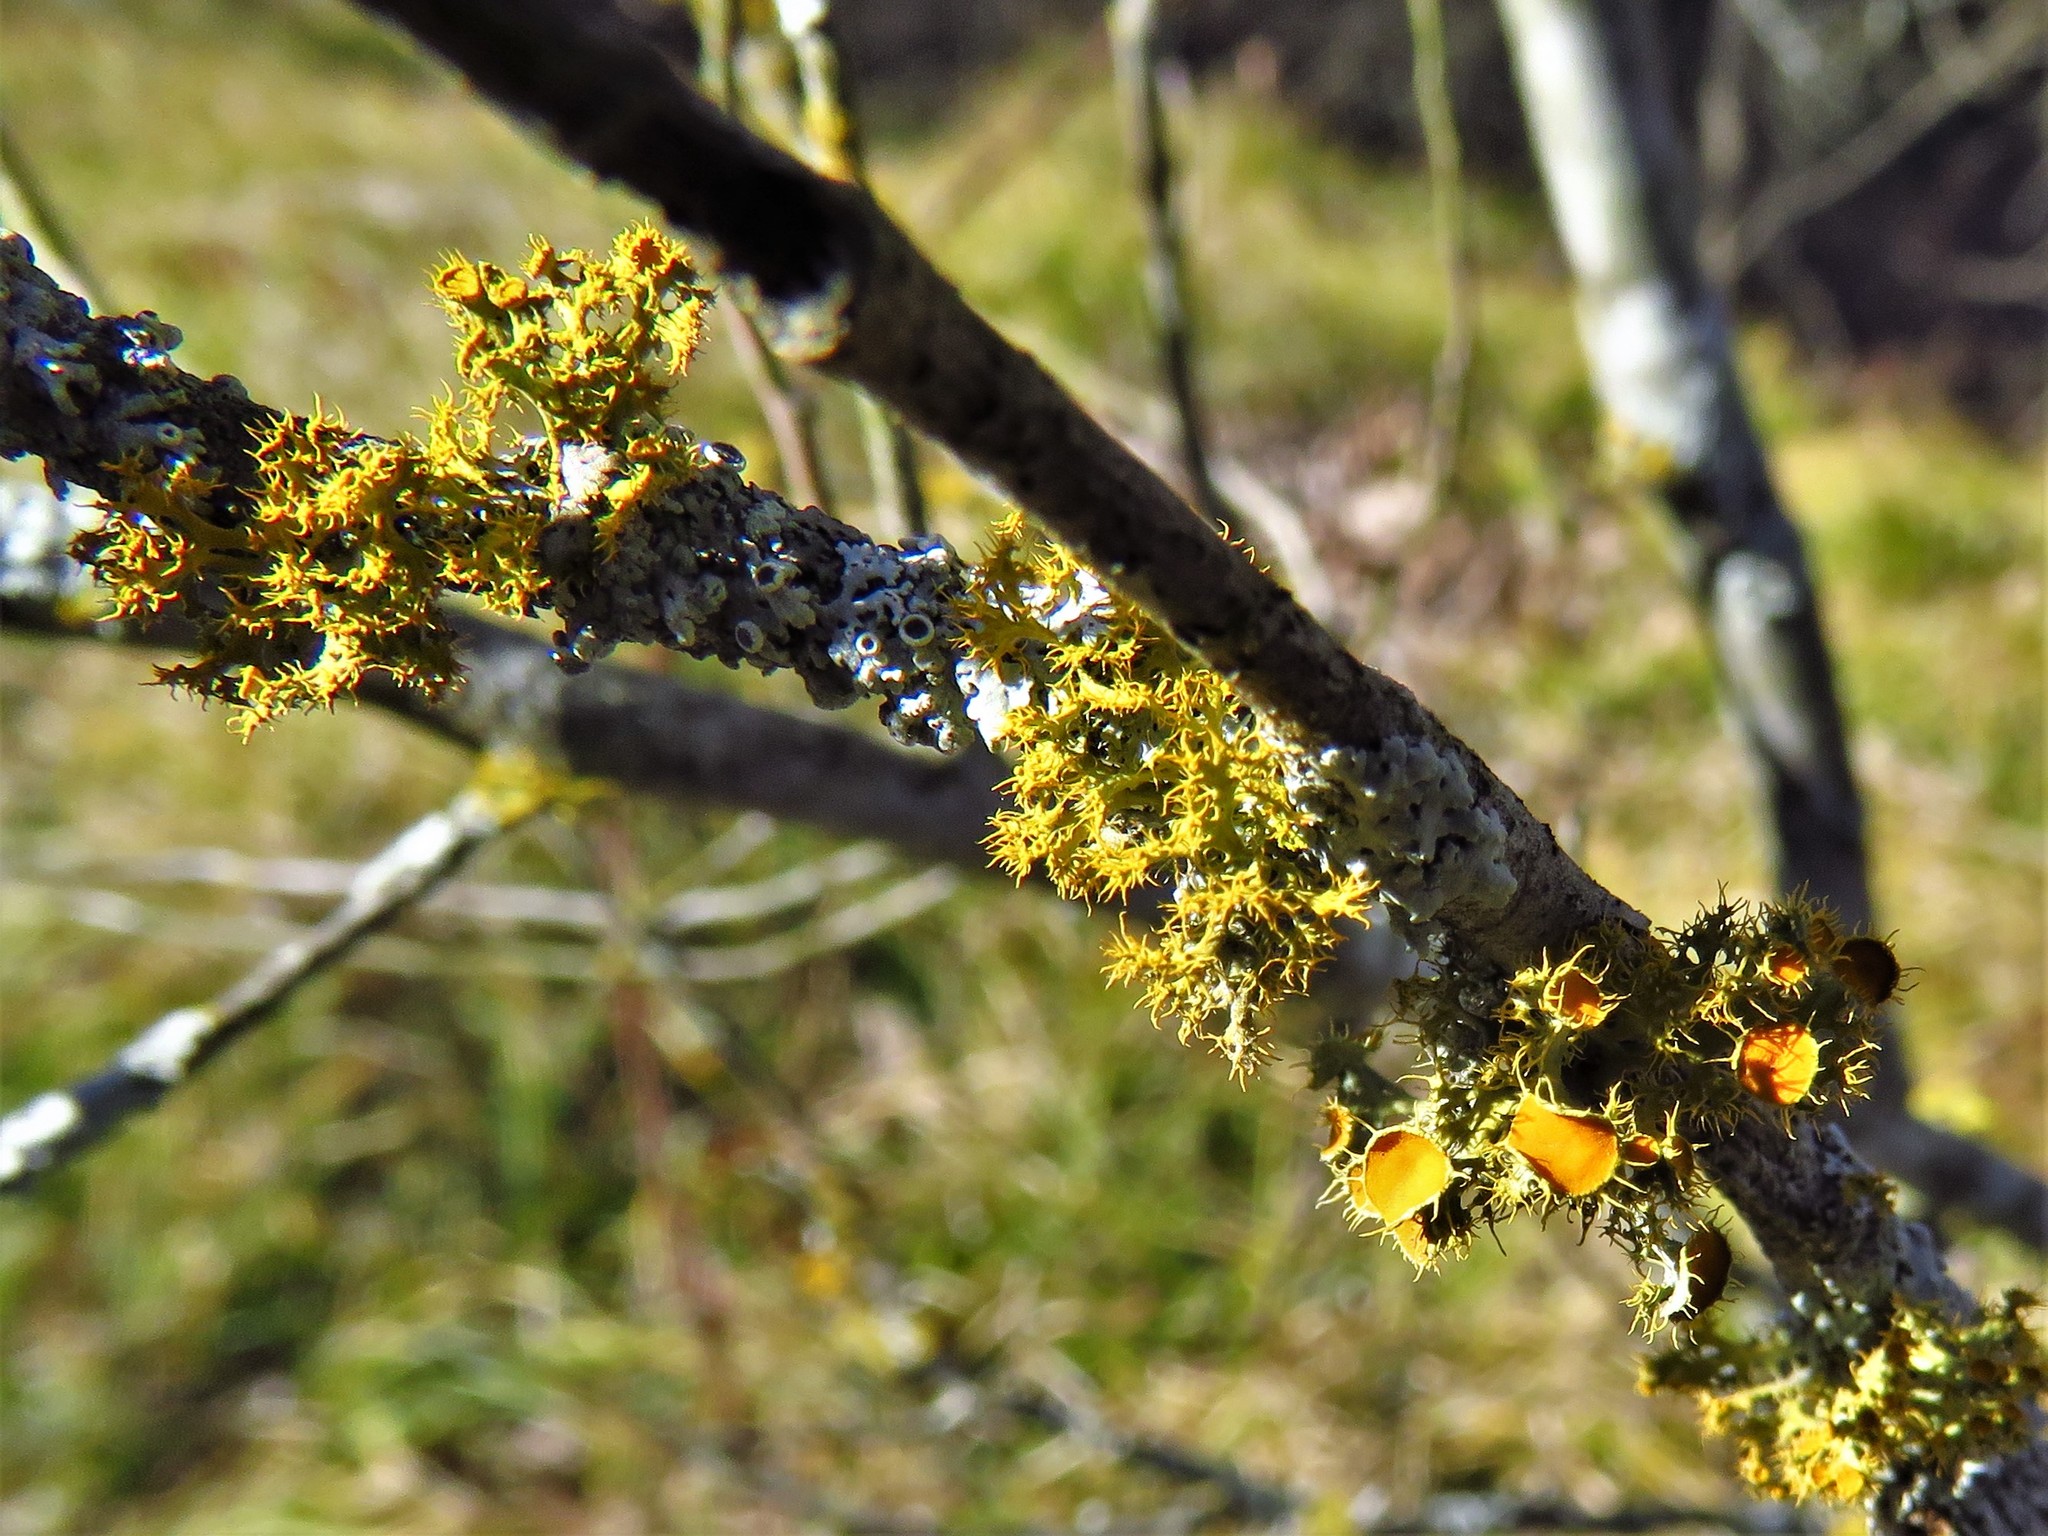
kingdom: Fungi
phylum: Ascomycota
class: Lecanoromycetes
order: Teloschistales
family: Teloschistaceae
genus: Niorma
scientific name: Niorma chrysophthalma
